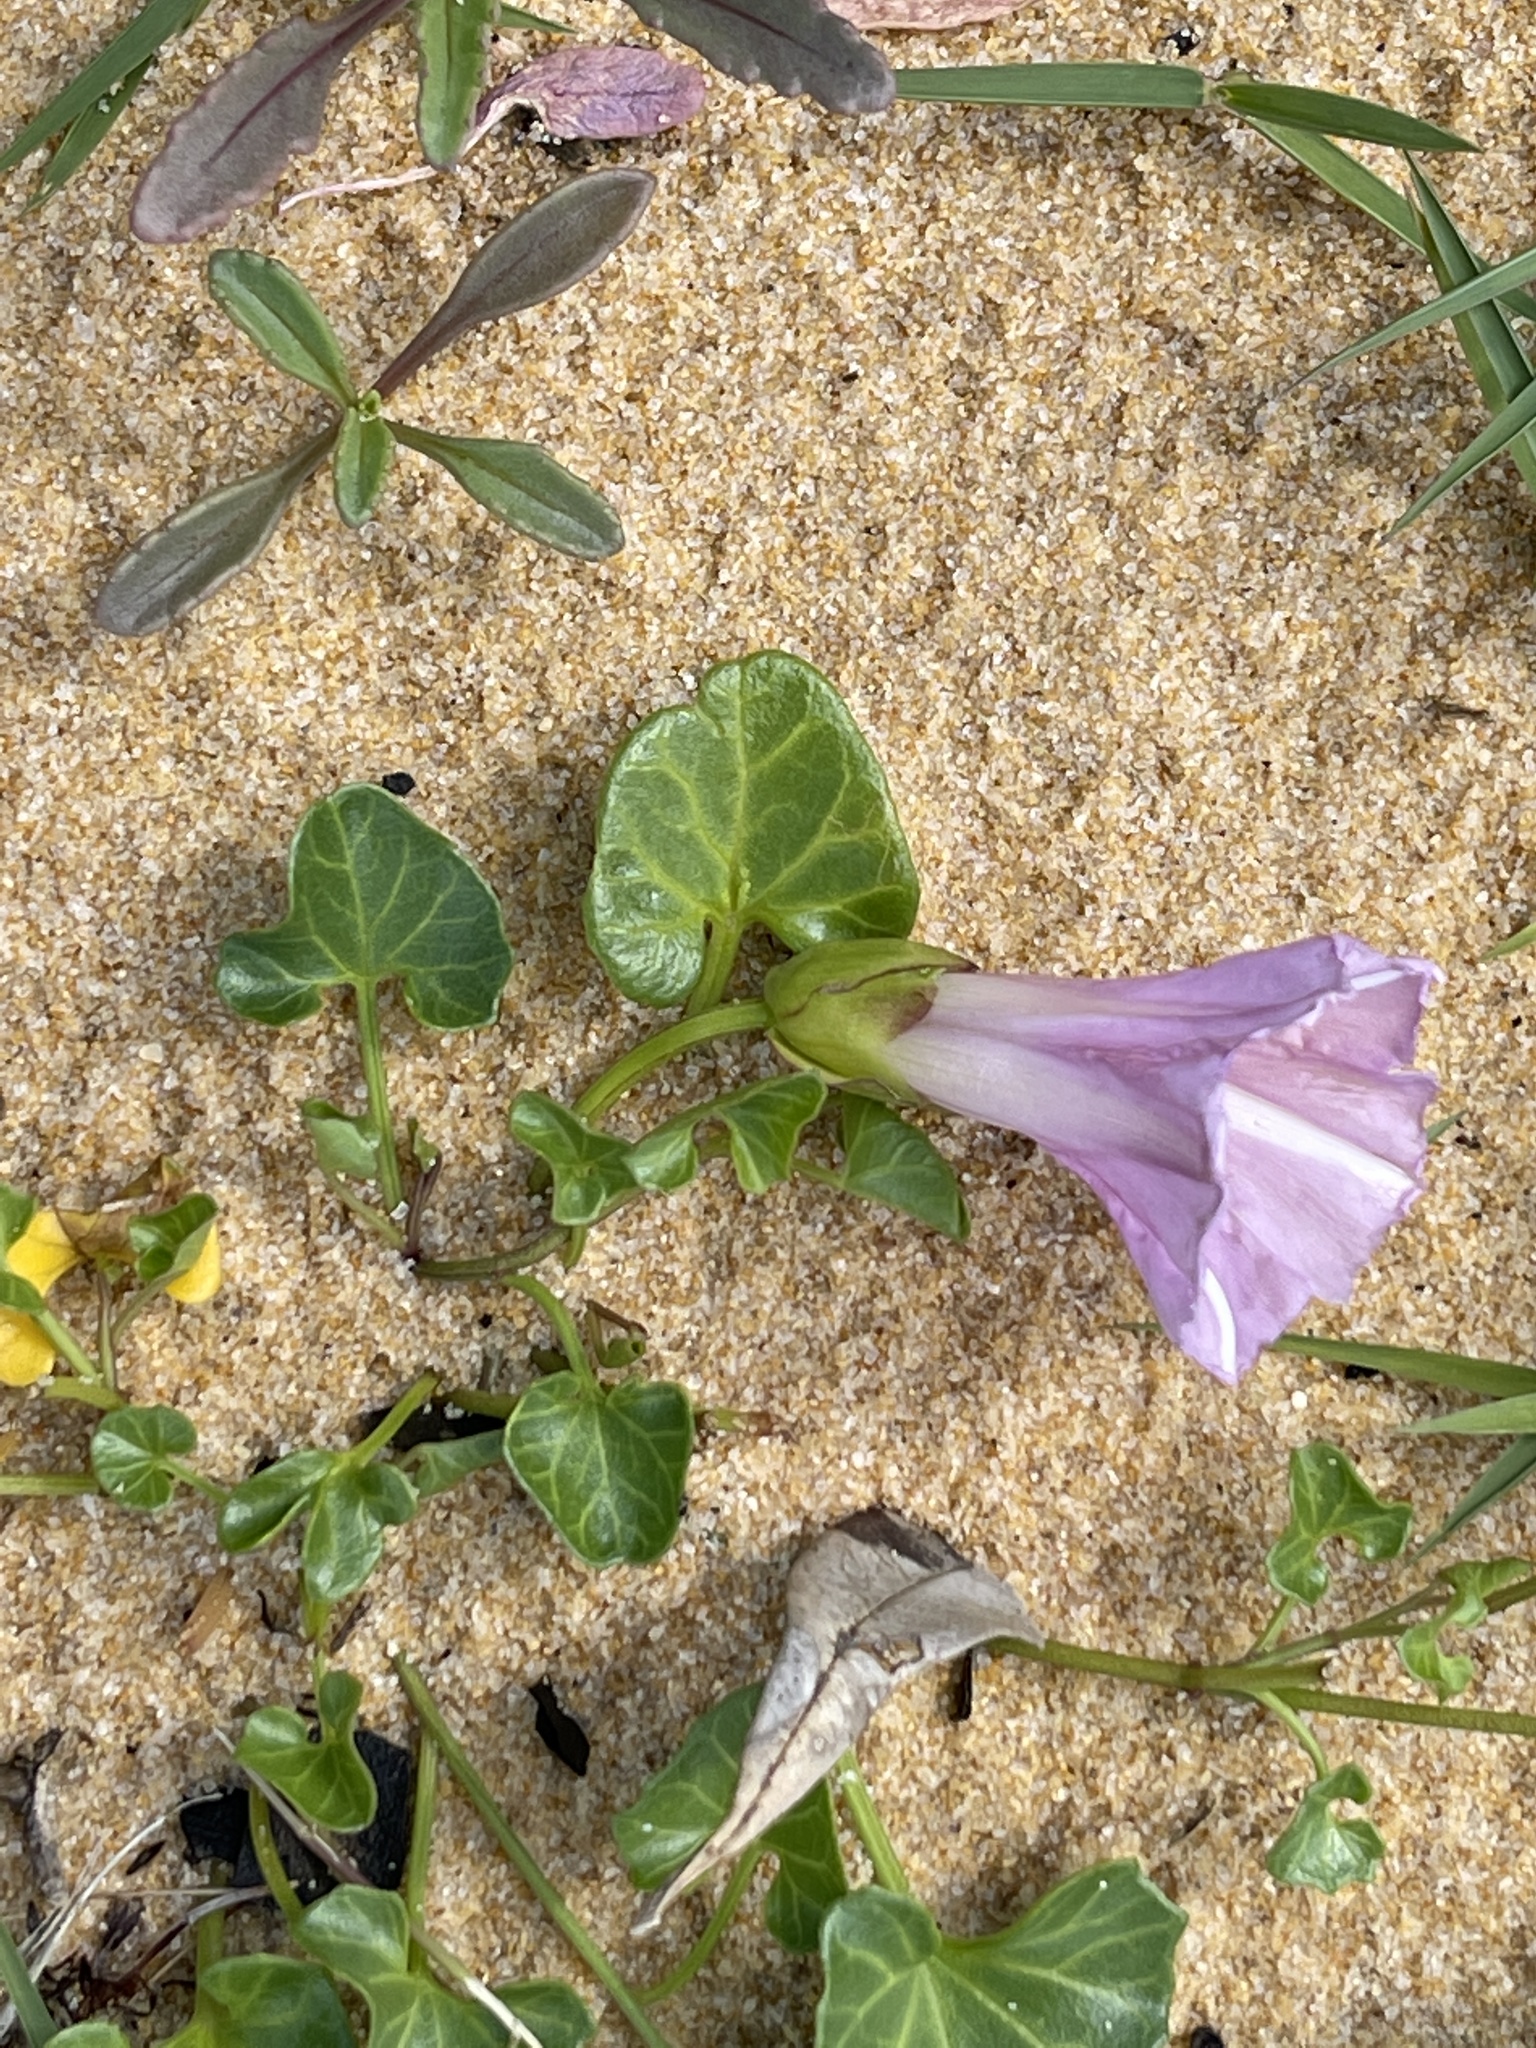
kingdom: Plantae
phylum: Tracheophyta
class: Magnoliopsida
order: Solanales
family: Convolvulaceae
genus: Calystegia
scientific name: Calystegia soldanella
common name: Sea bindweed
